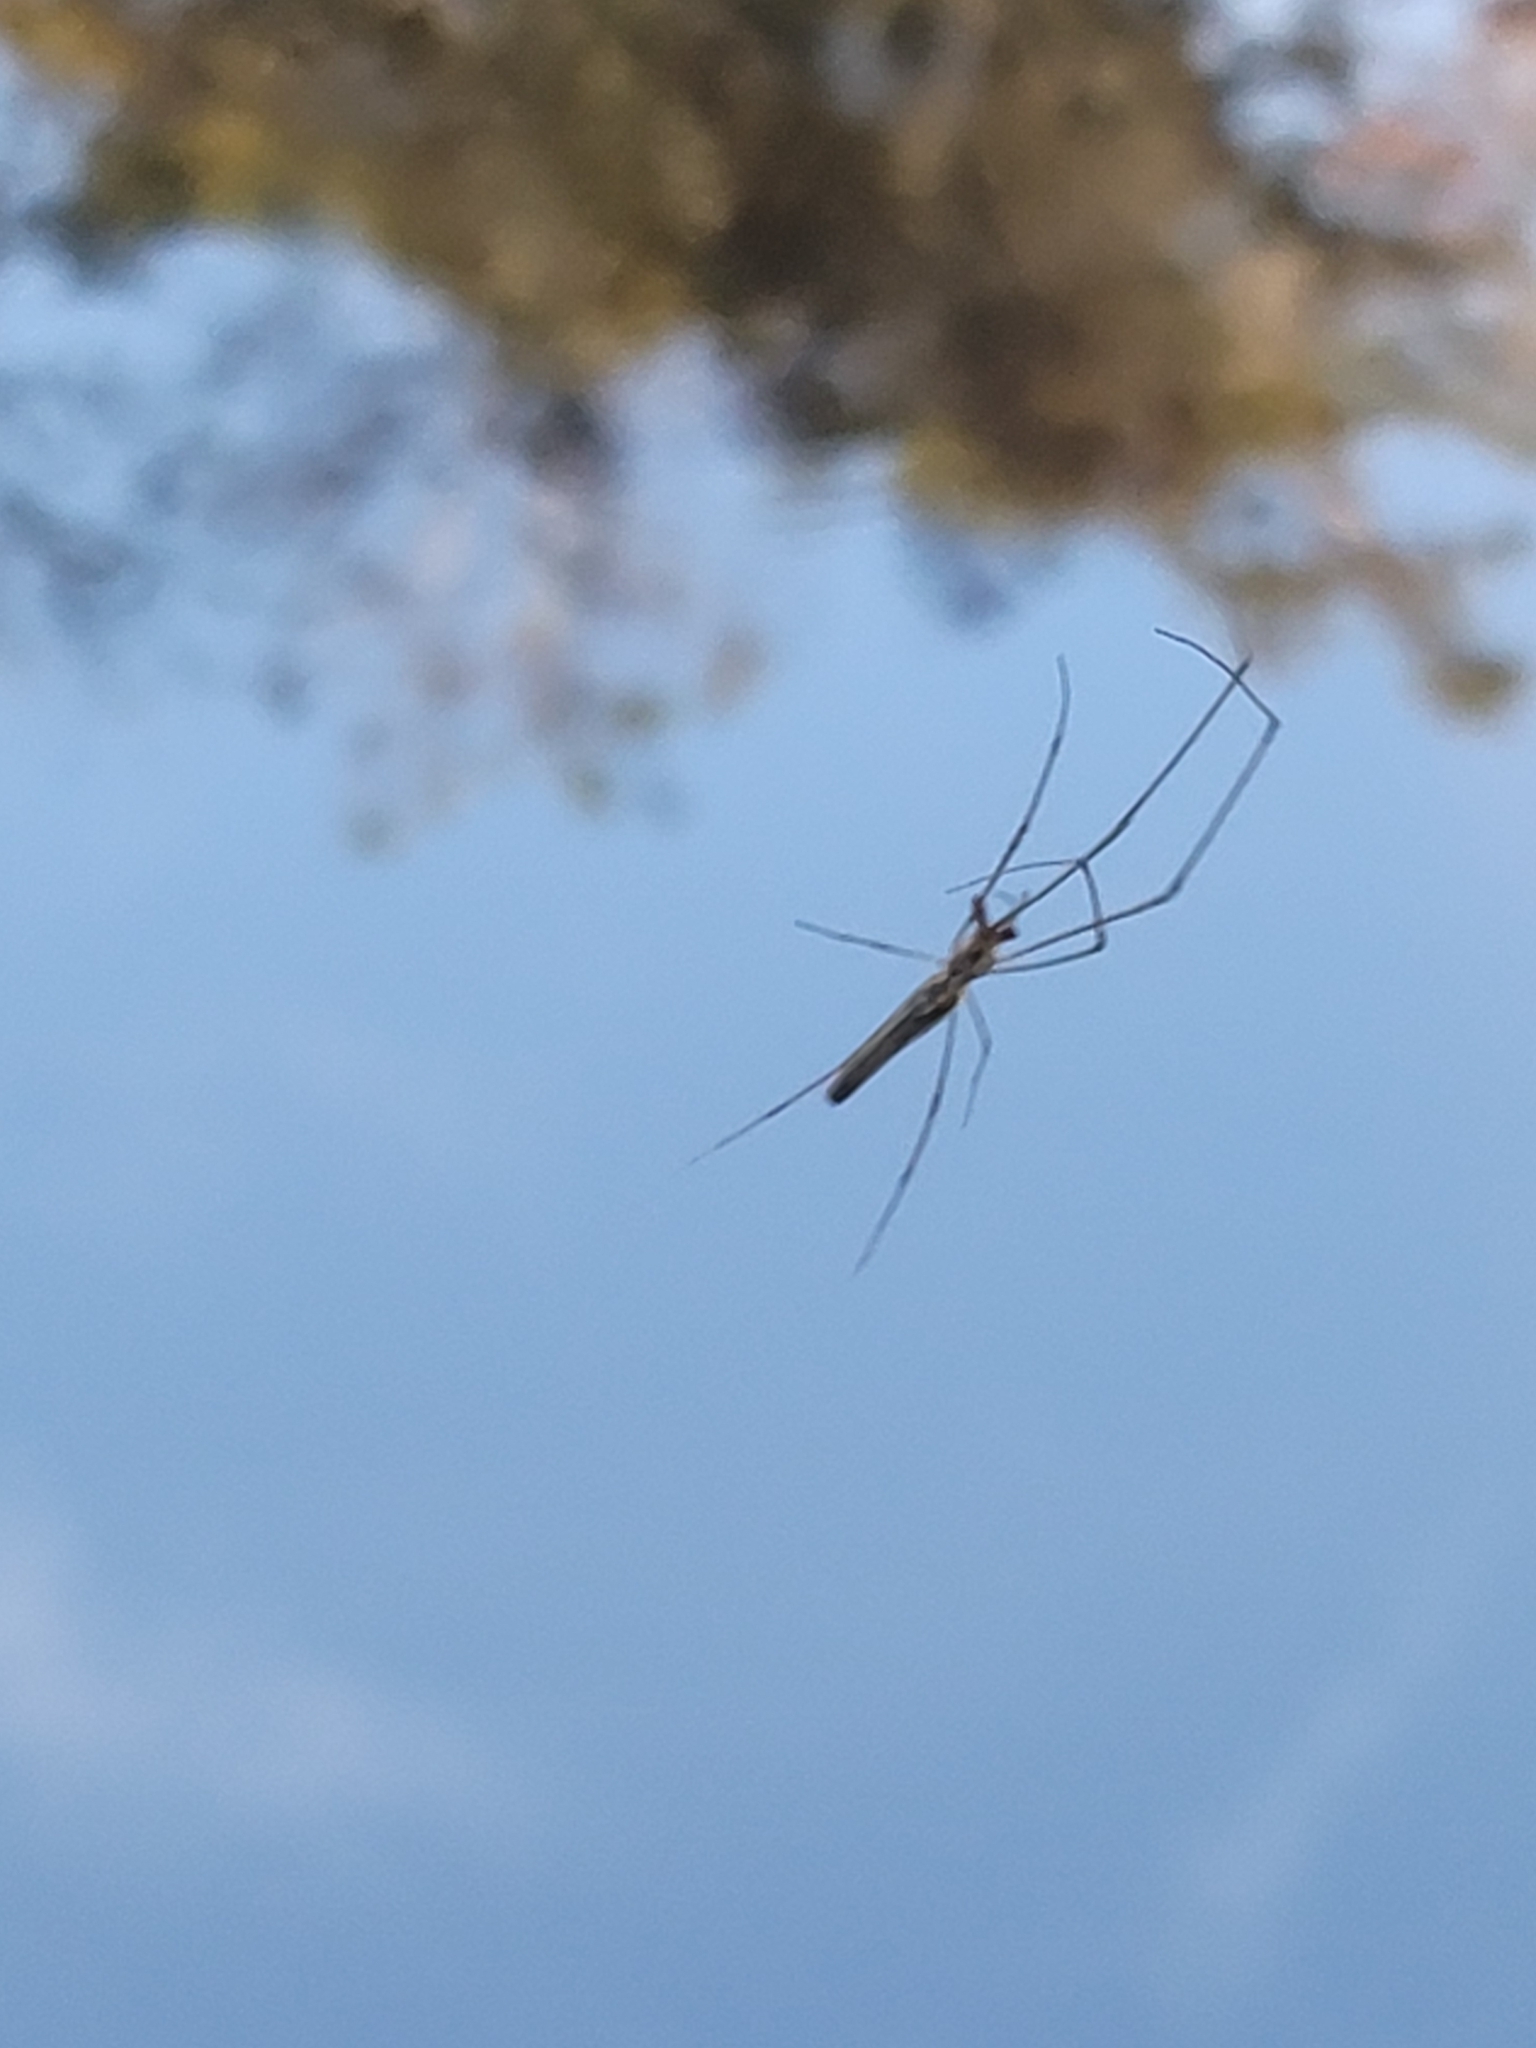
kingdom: Animalia
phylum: Arthropoda
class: Arachnida
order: Araneae
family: Tetragnathidae
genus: Tetragnatha
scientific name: Tetragnatha
